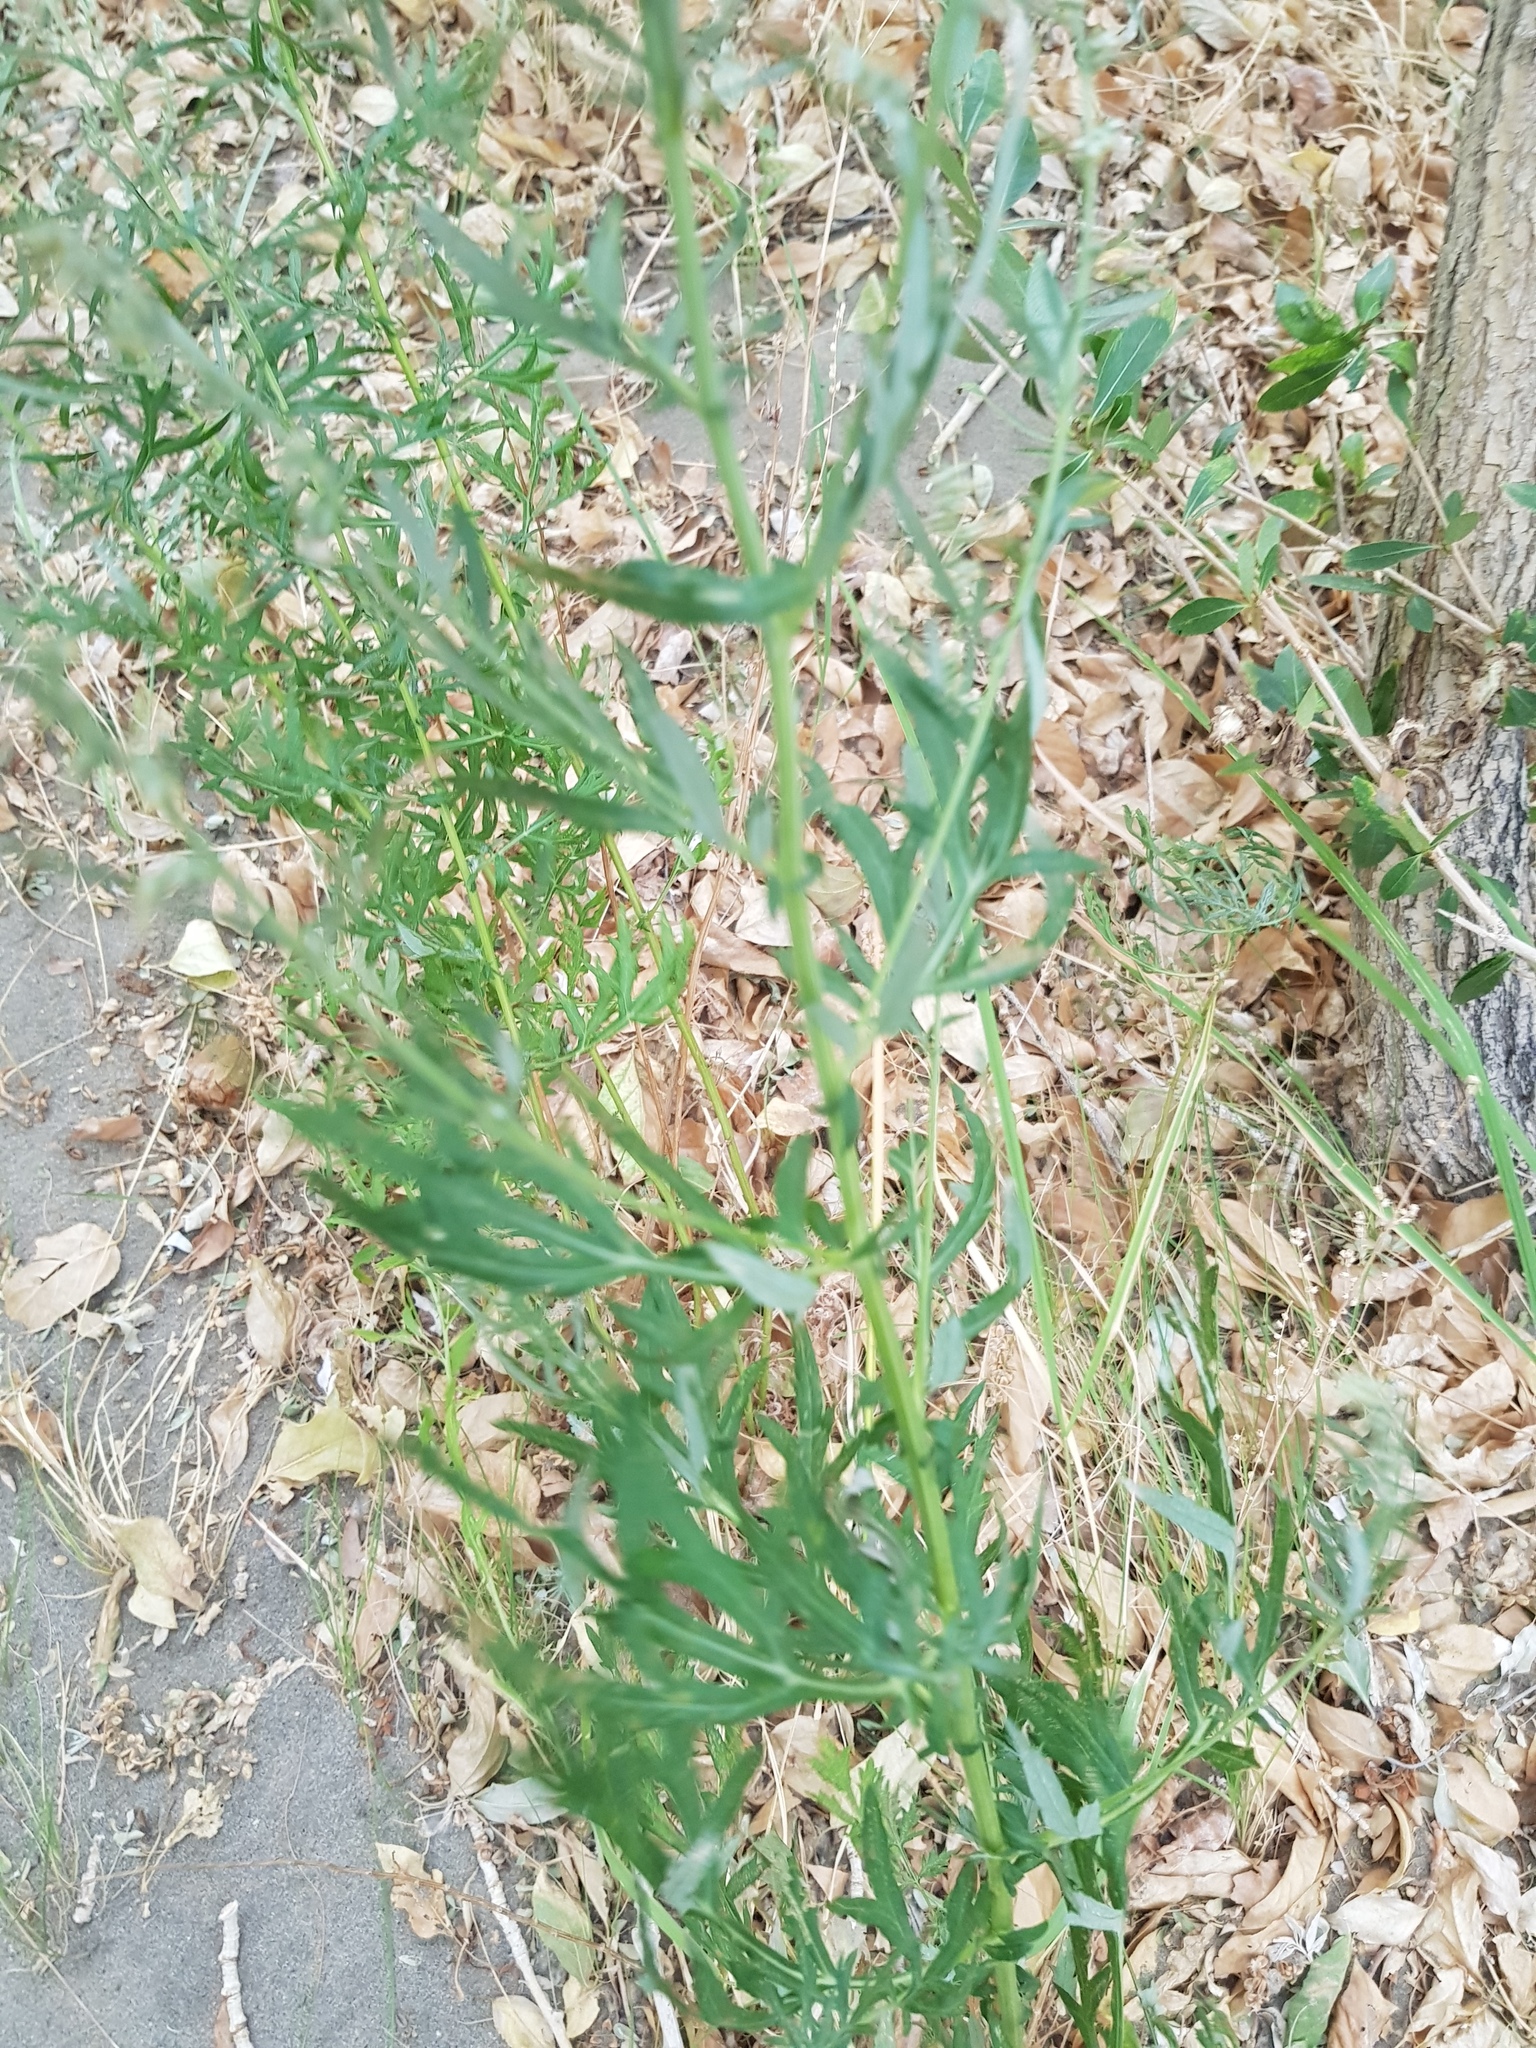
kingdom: Plantae
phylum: Tracheophyta
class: Magnoliopsida
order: Asterales
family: Asteraceae
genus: Artemisia
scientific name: Artemisia dracunculus
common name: Tarragon
